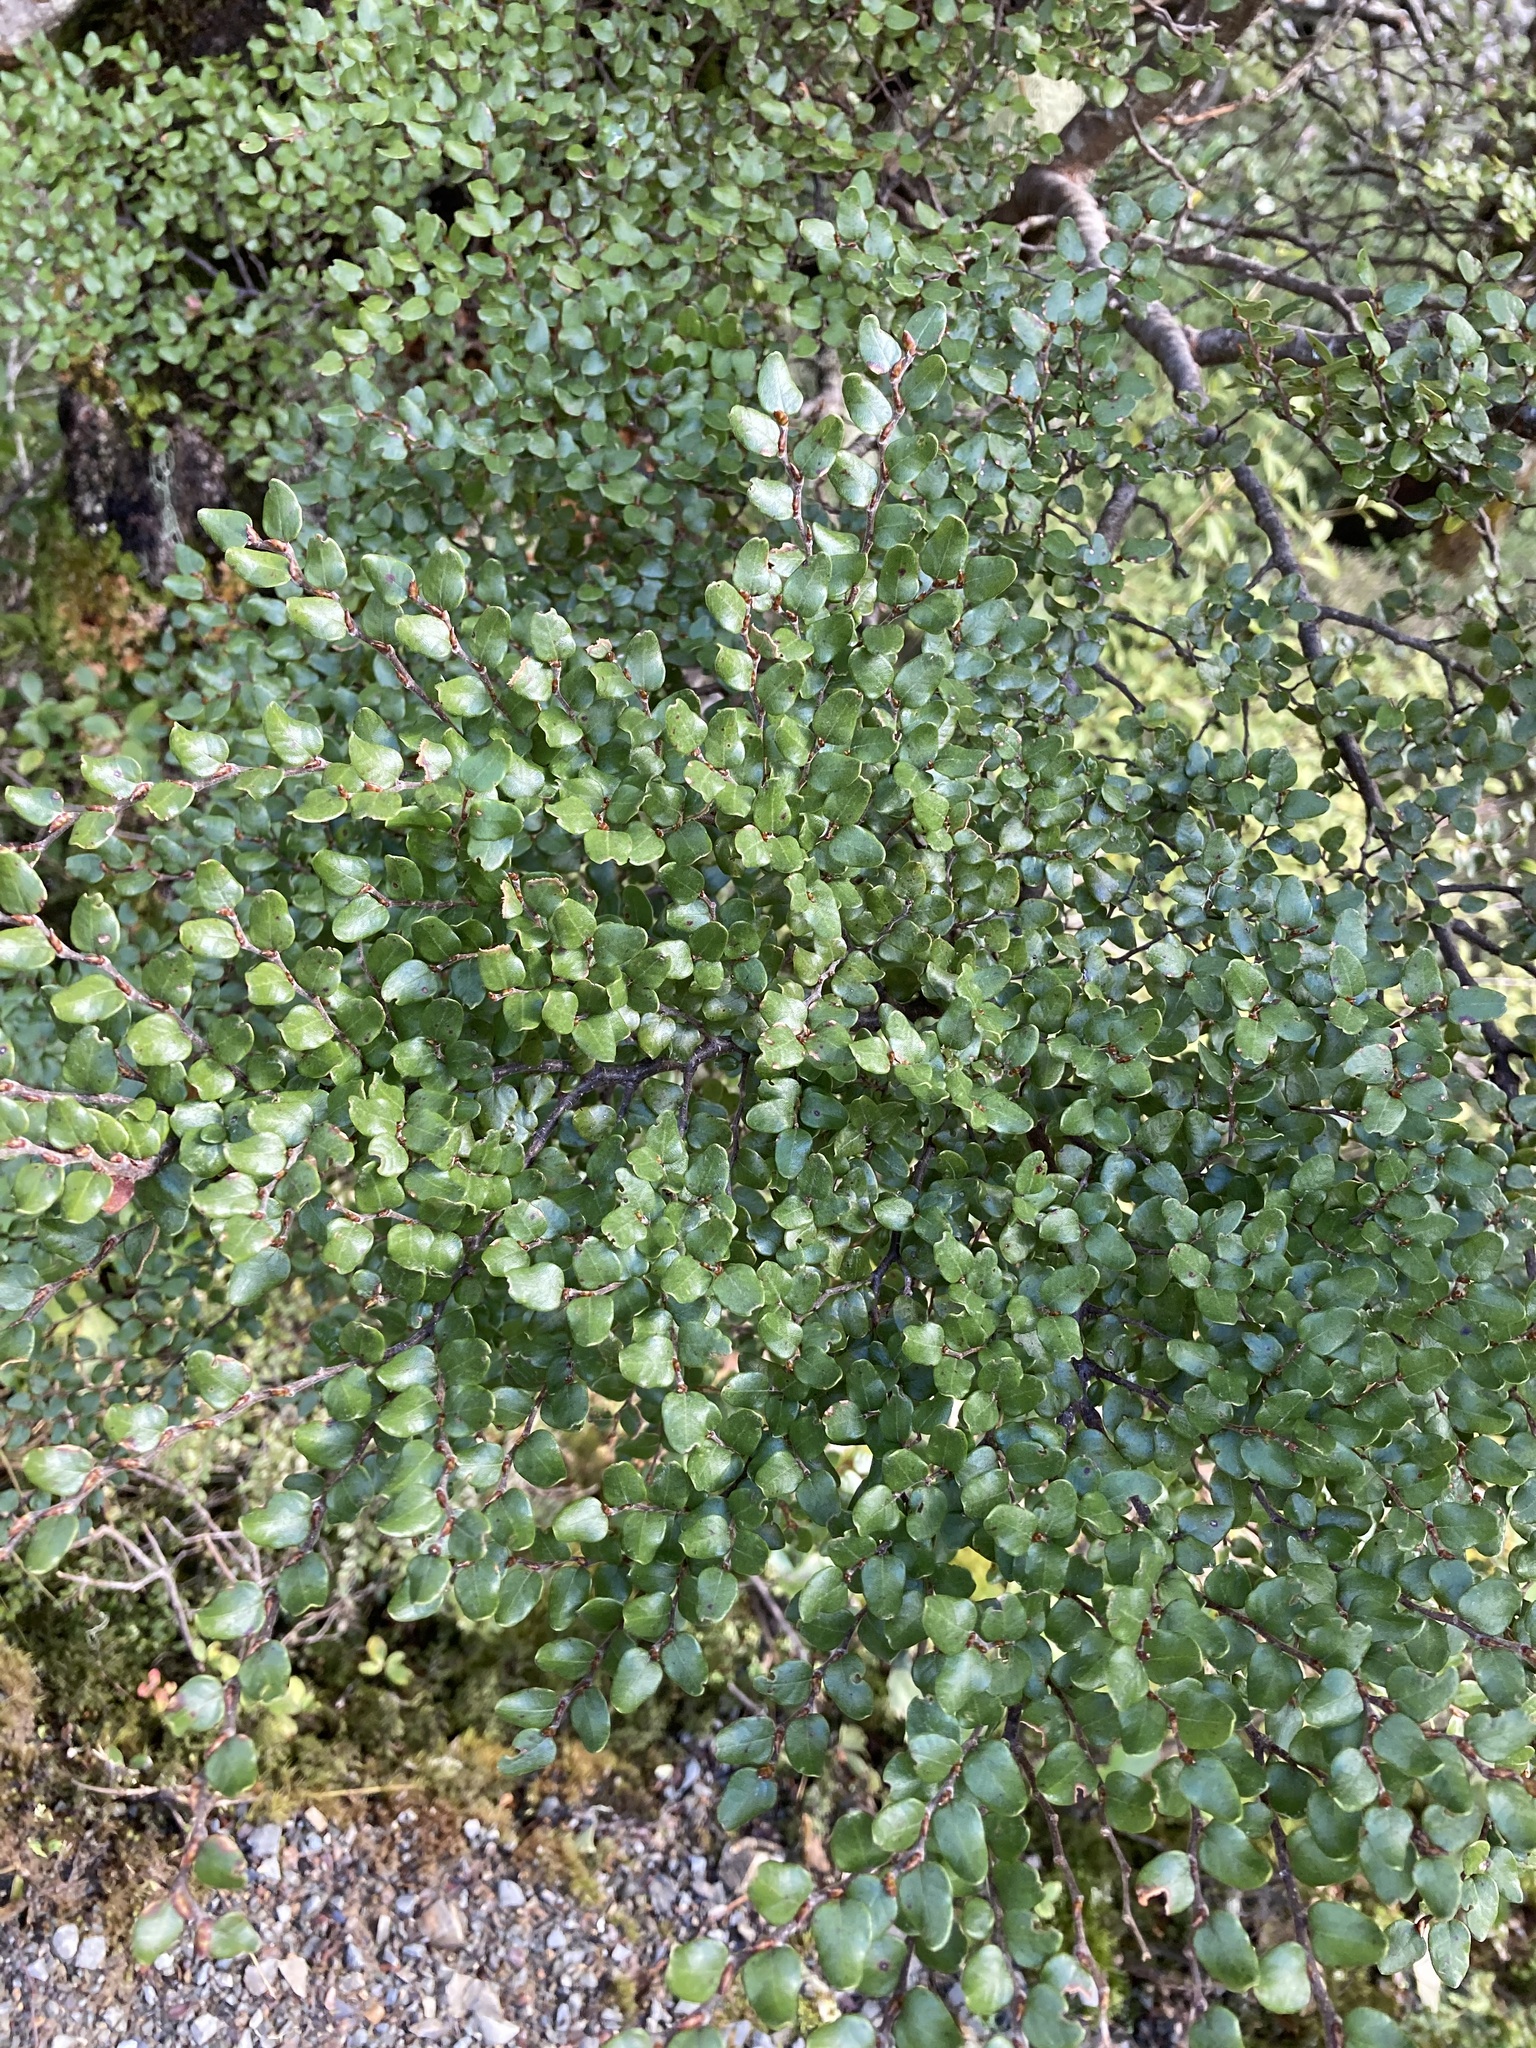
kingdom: Plantae
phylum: Tracheophyta
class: Magnoliopsida
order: Fagales
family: Nothofagaceae
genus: Nothofagus
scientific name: Nothofagus cliffortioides
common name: Mountain beech
